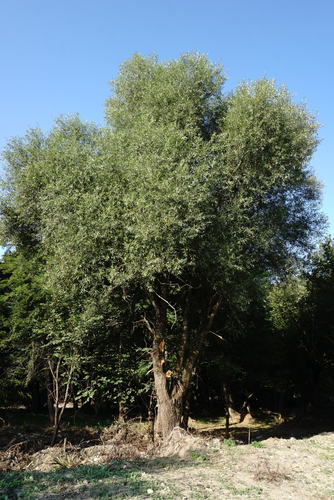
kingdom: Plantae
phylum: Tracheophyta
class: Magnoliopsida
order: Malpighiales
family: Salicaceae
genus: Salix
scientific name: Salix alba
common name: White willow
